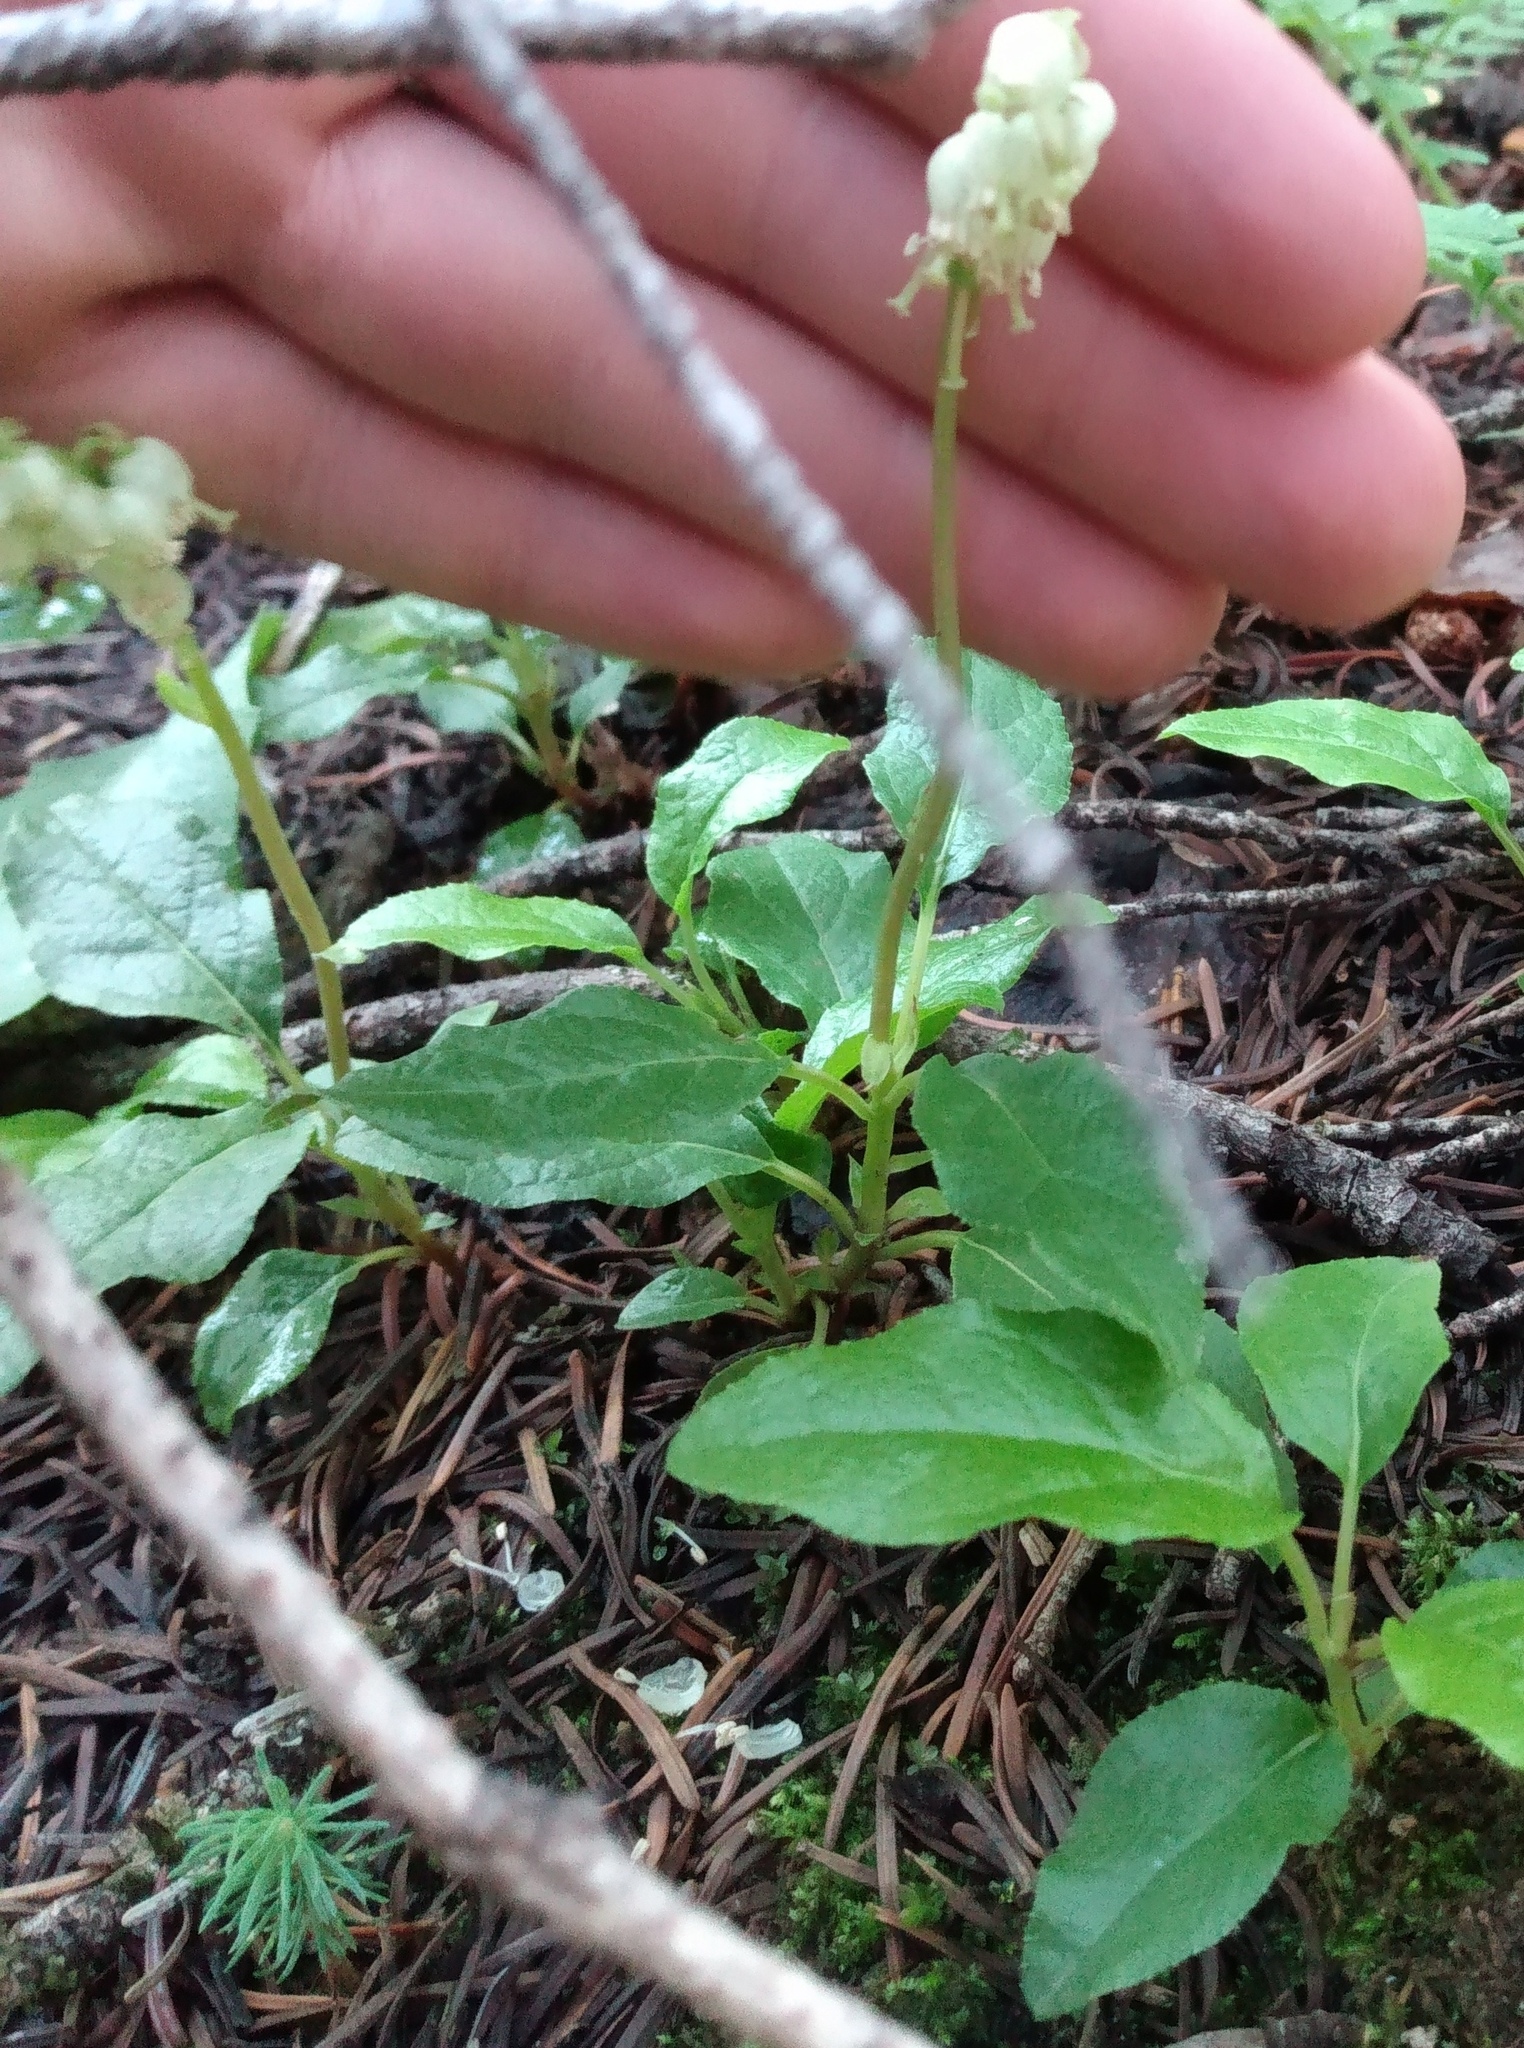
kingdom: Plantae
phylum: Tracheophyta
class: Magnoliopsida
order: Ericales
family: Ericaceae
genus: Orthilia
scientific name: Orthilia secunda
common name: One-sided orthilia
